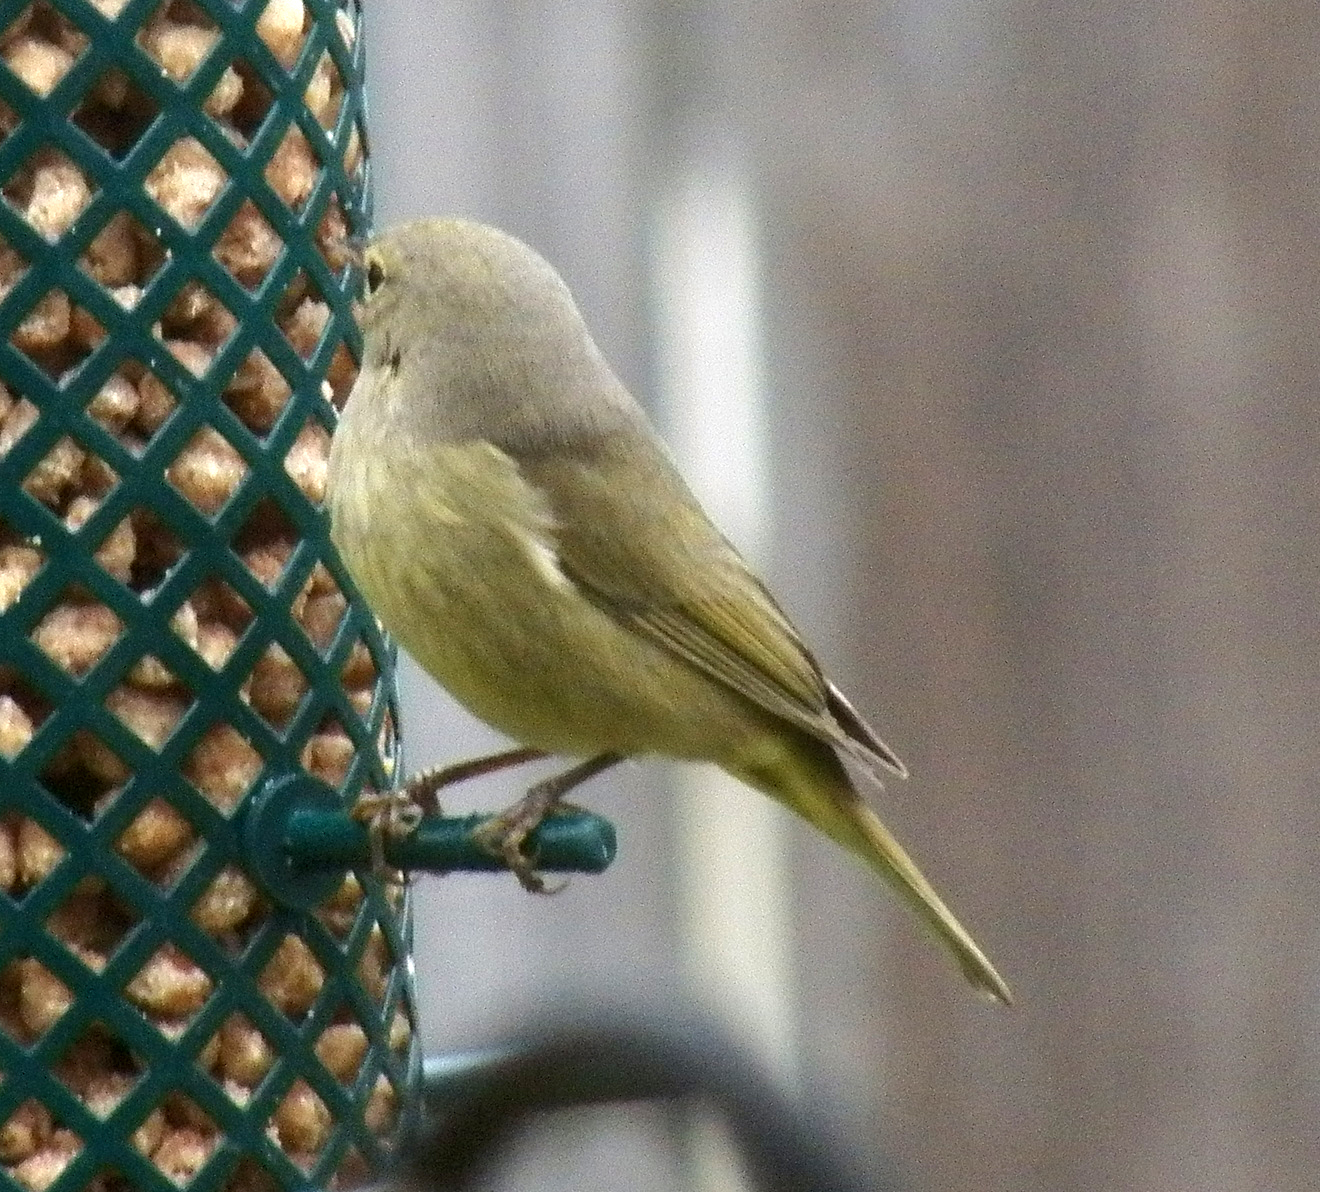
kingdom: Animalia
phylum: Chordata
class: Aves
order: Passeriformes
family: Parulidae
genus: Leiothlypis
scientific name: Leiothlypis celata
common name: Orange-crowned warbler
